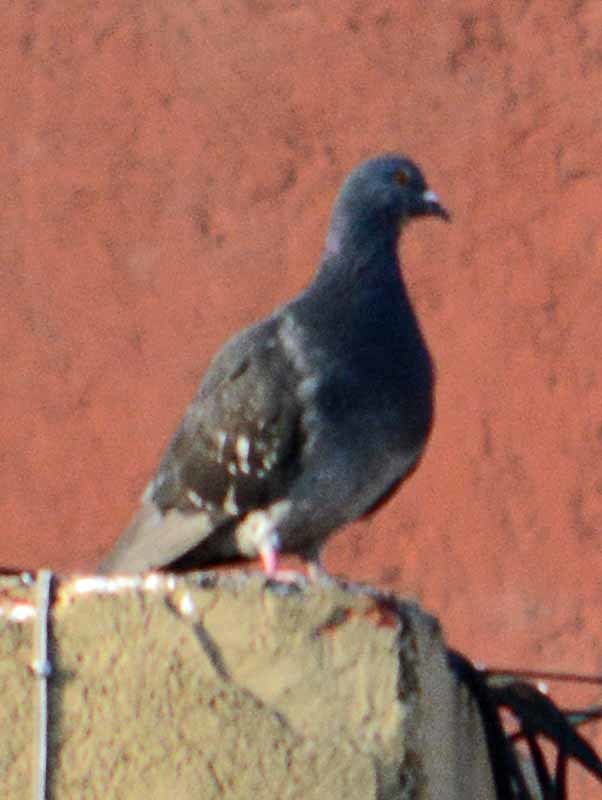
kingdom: Animalia
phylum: Chordata
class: Aves
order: Columbiformes
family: Columbidae
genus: Columba
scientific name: Columba livia
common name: Rock pigeon
